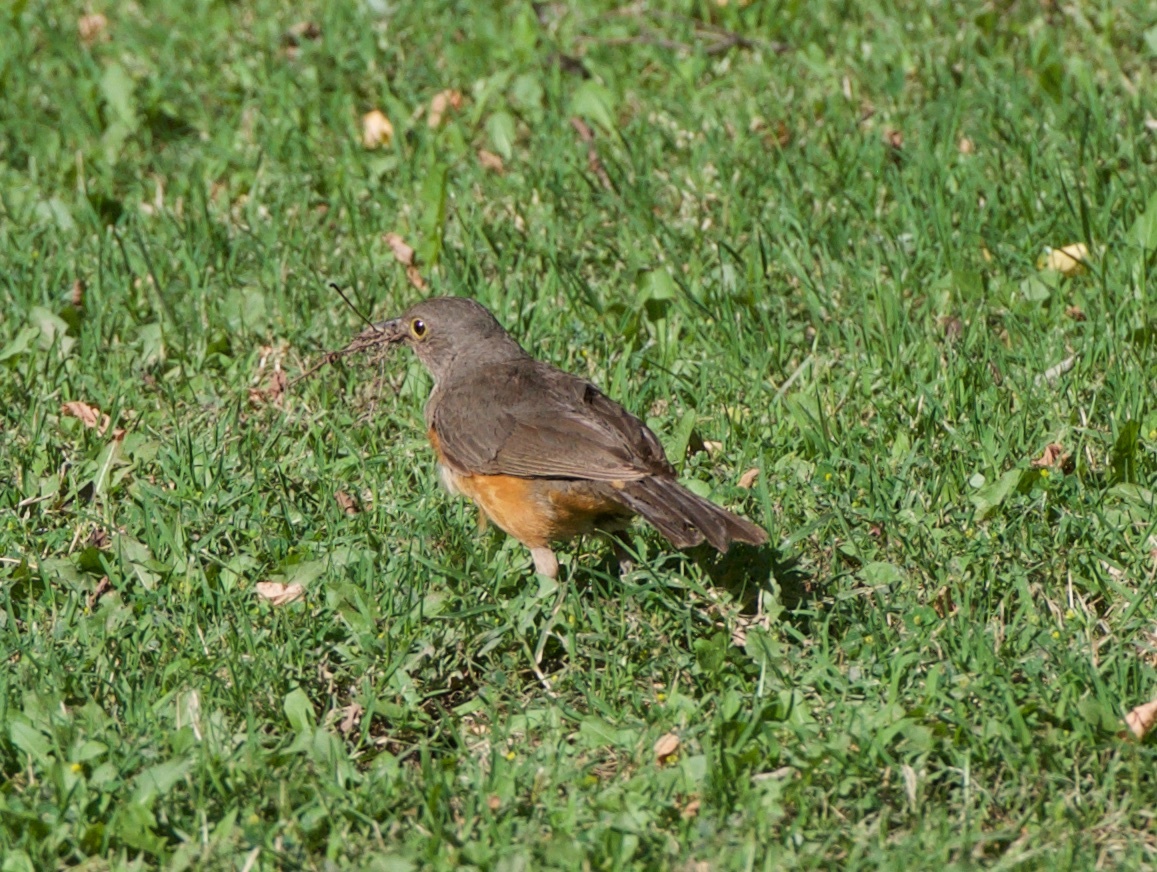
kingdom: Animalia
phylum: Chordata
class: Aves
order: Passeriformes
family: Turdidae
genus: Turdus
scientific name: Turdus rufiventris
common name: Rufous-bellied thrush
